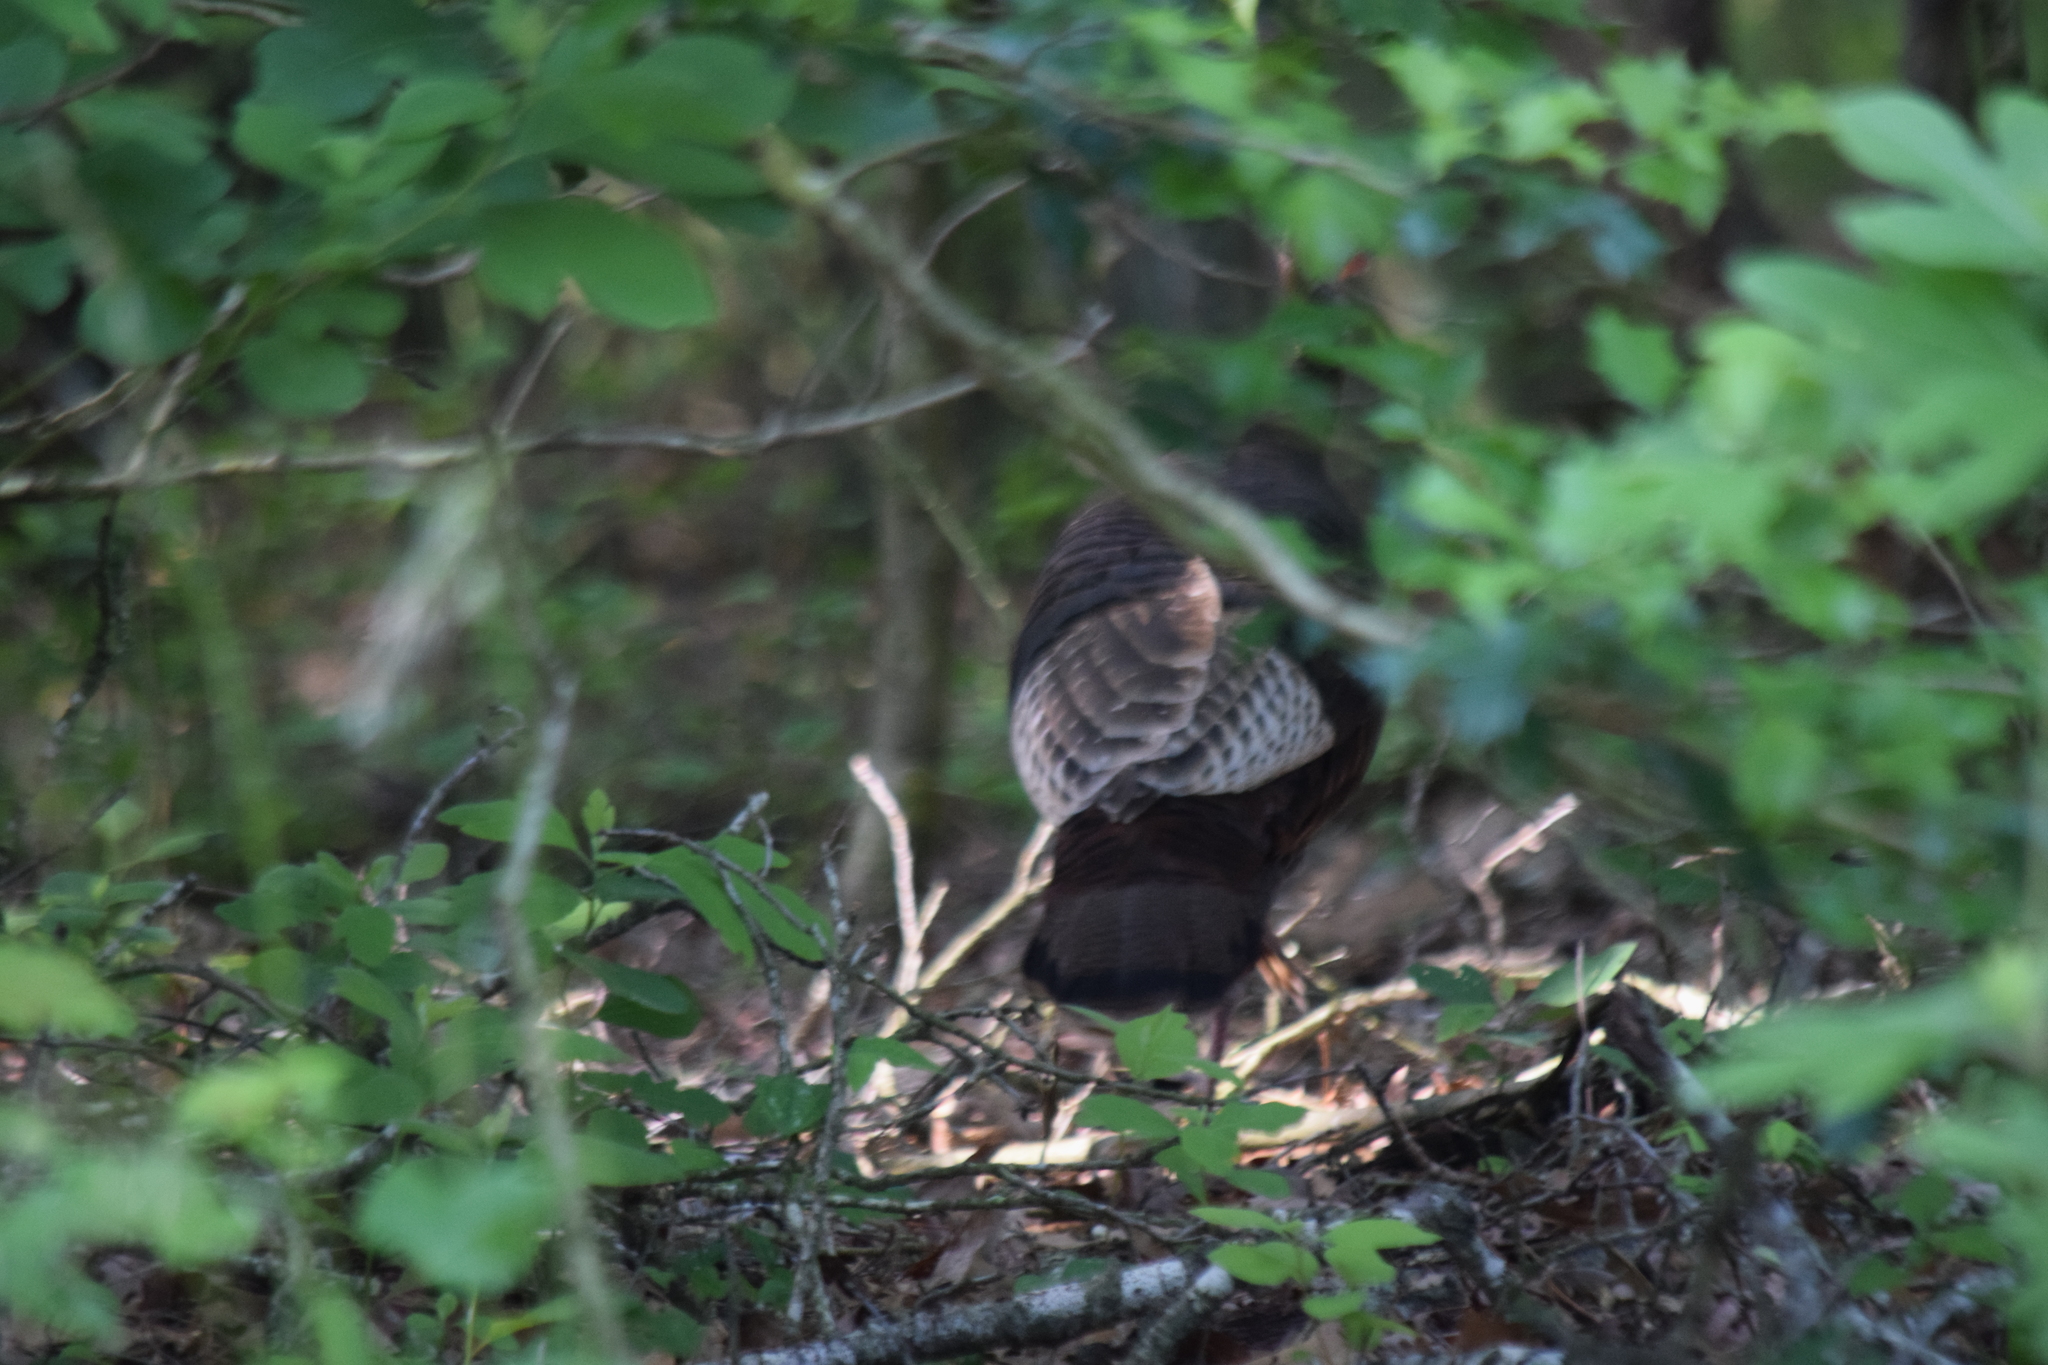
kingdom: Animalia
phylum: Chordata
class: Aves
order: Galliformes
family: Phasianidae
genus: Meleagris
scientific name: Meleagris gallopavo
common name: Wild turkey
